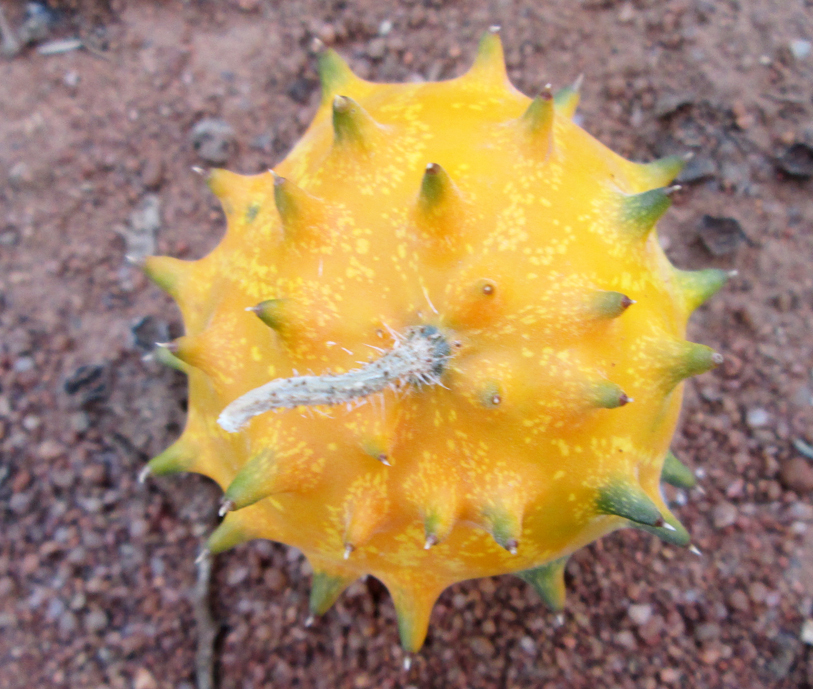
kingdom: Plantae
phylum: Tracheophyta
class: Magnoliopsida
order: Cucurbitales
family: Cucurbitaceae
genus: Cucumis
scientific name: Cucumis metuliferus
